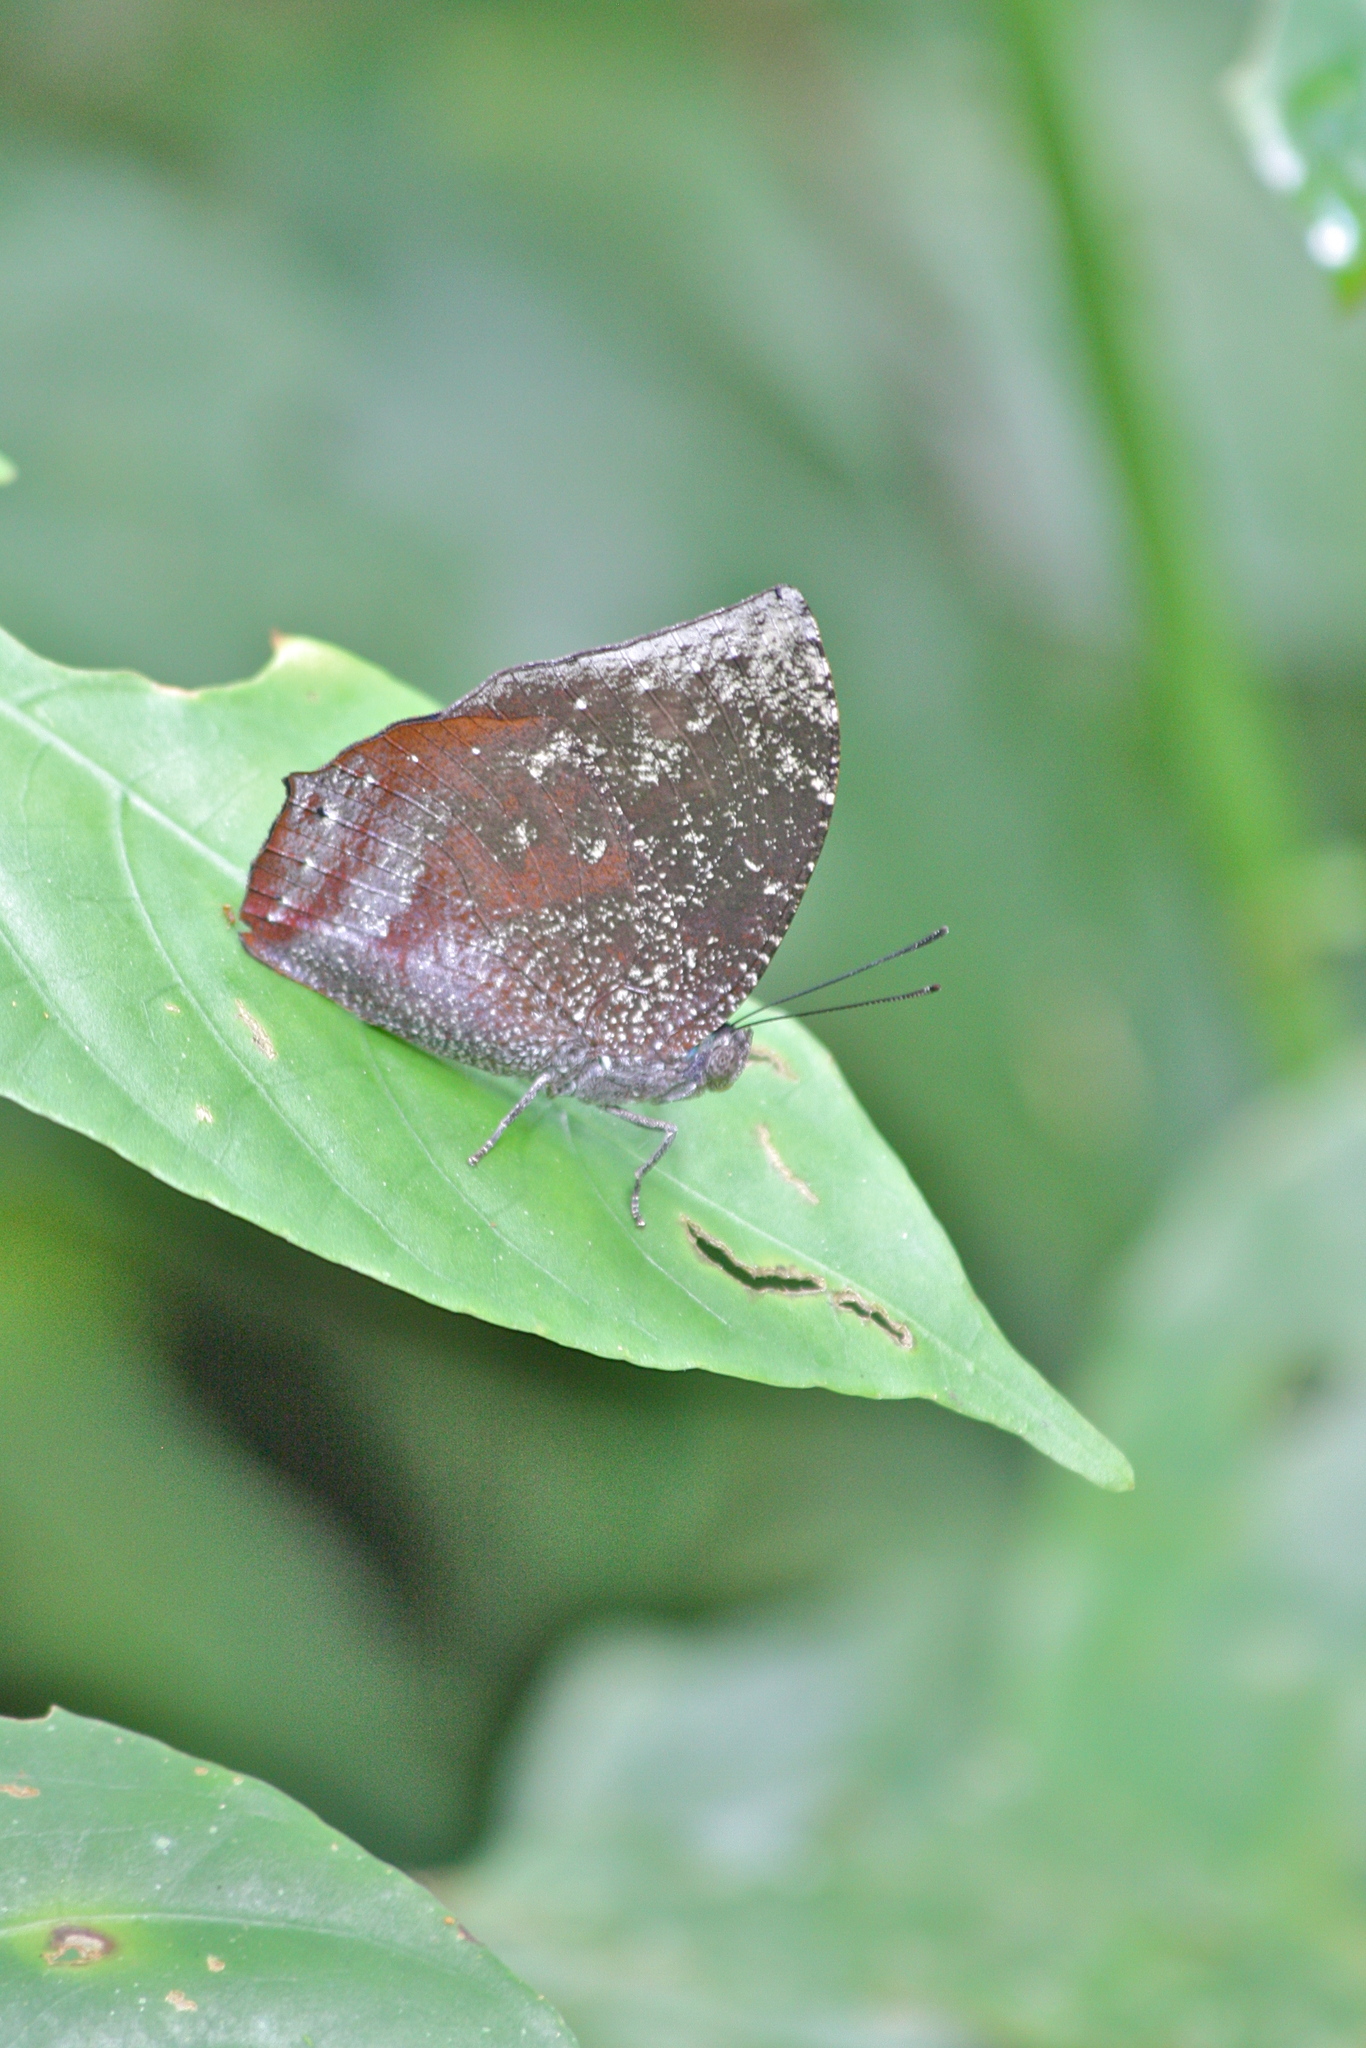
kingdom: Animalia
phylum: Arthropoda
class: Insecta
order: Lepidoptera
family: Nymphalidae
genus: Anaea
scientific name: Anaea basilia
